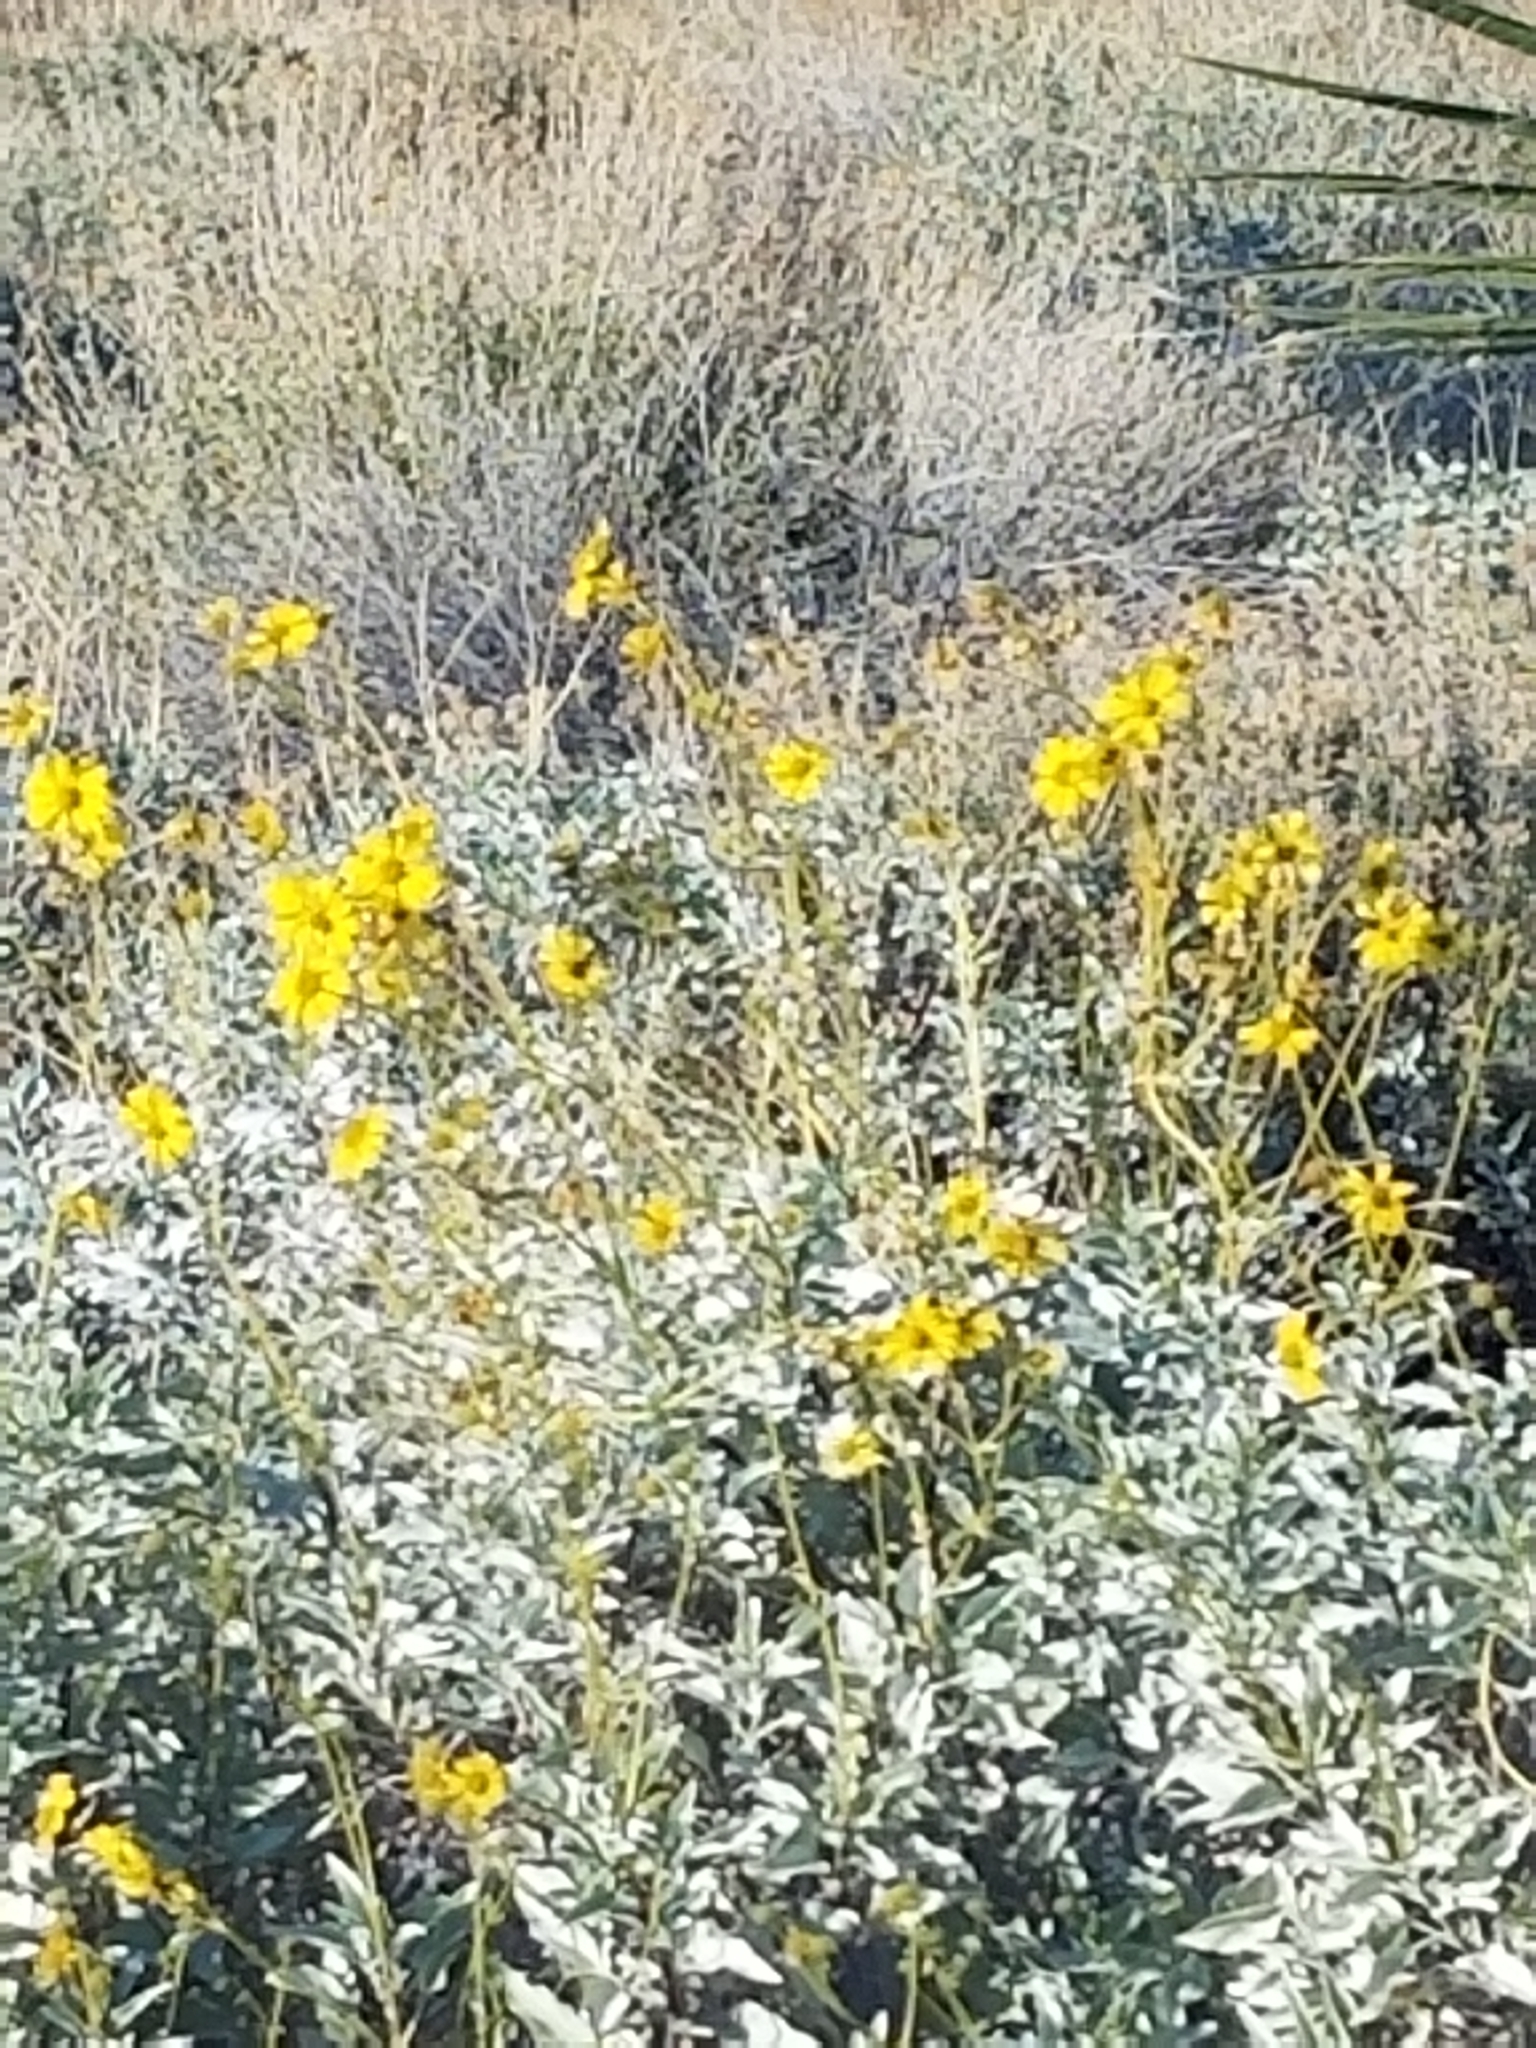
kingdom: Plantae
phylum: Tracheophyta
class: Magnoliopsida
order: Asterales
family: Asteraceae
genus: Encelia
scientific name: Encelia farinosa
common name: Brittlebush
